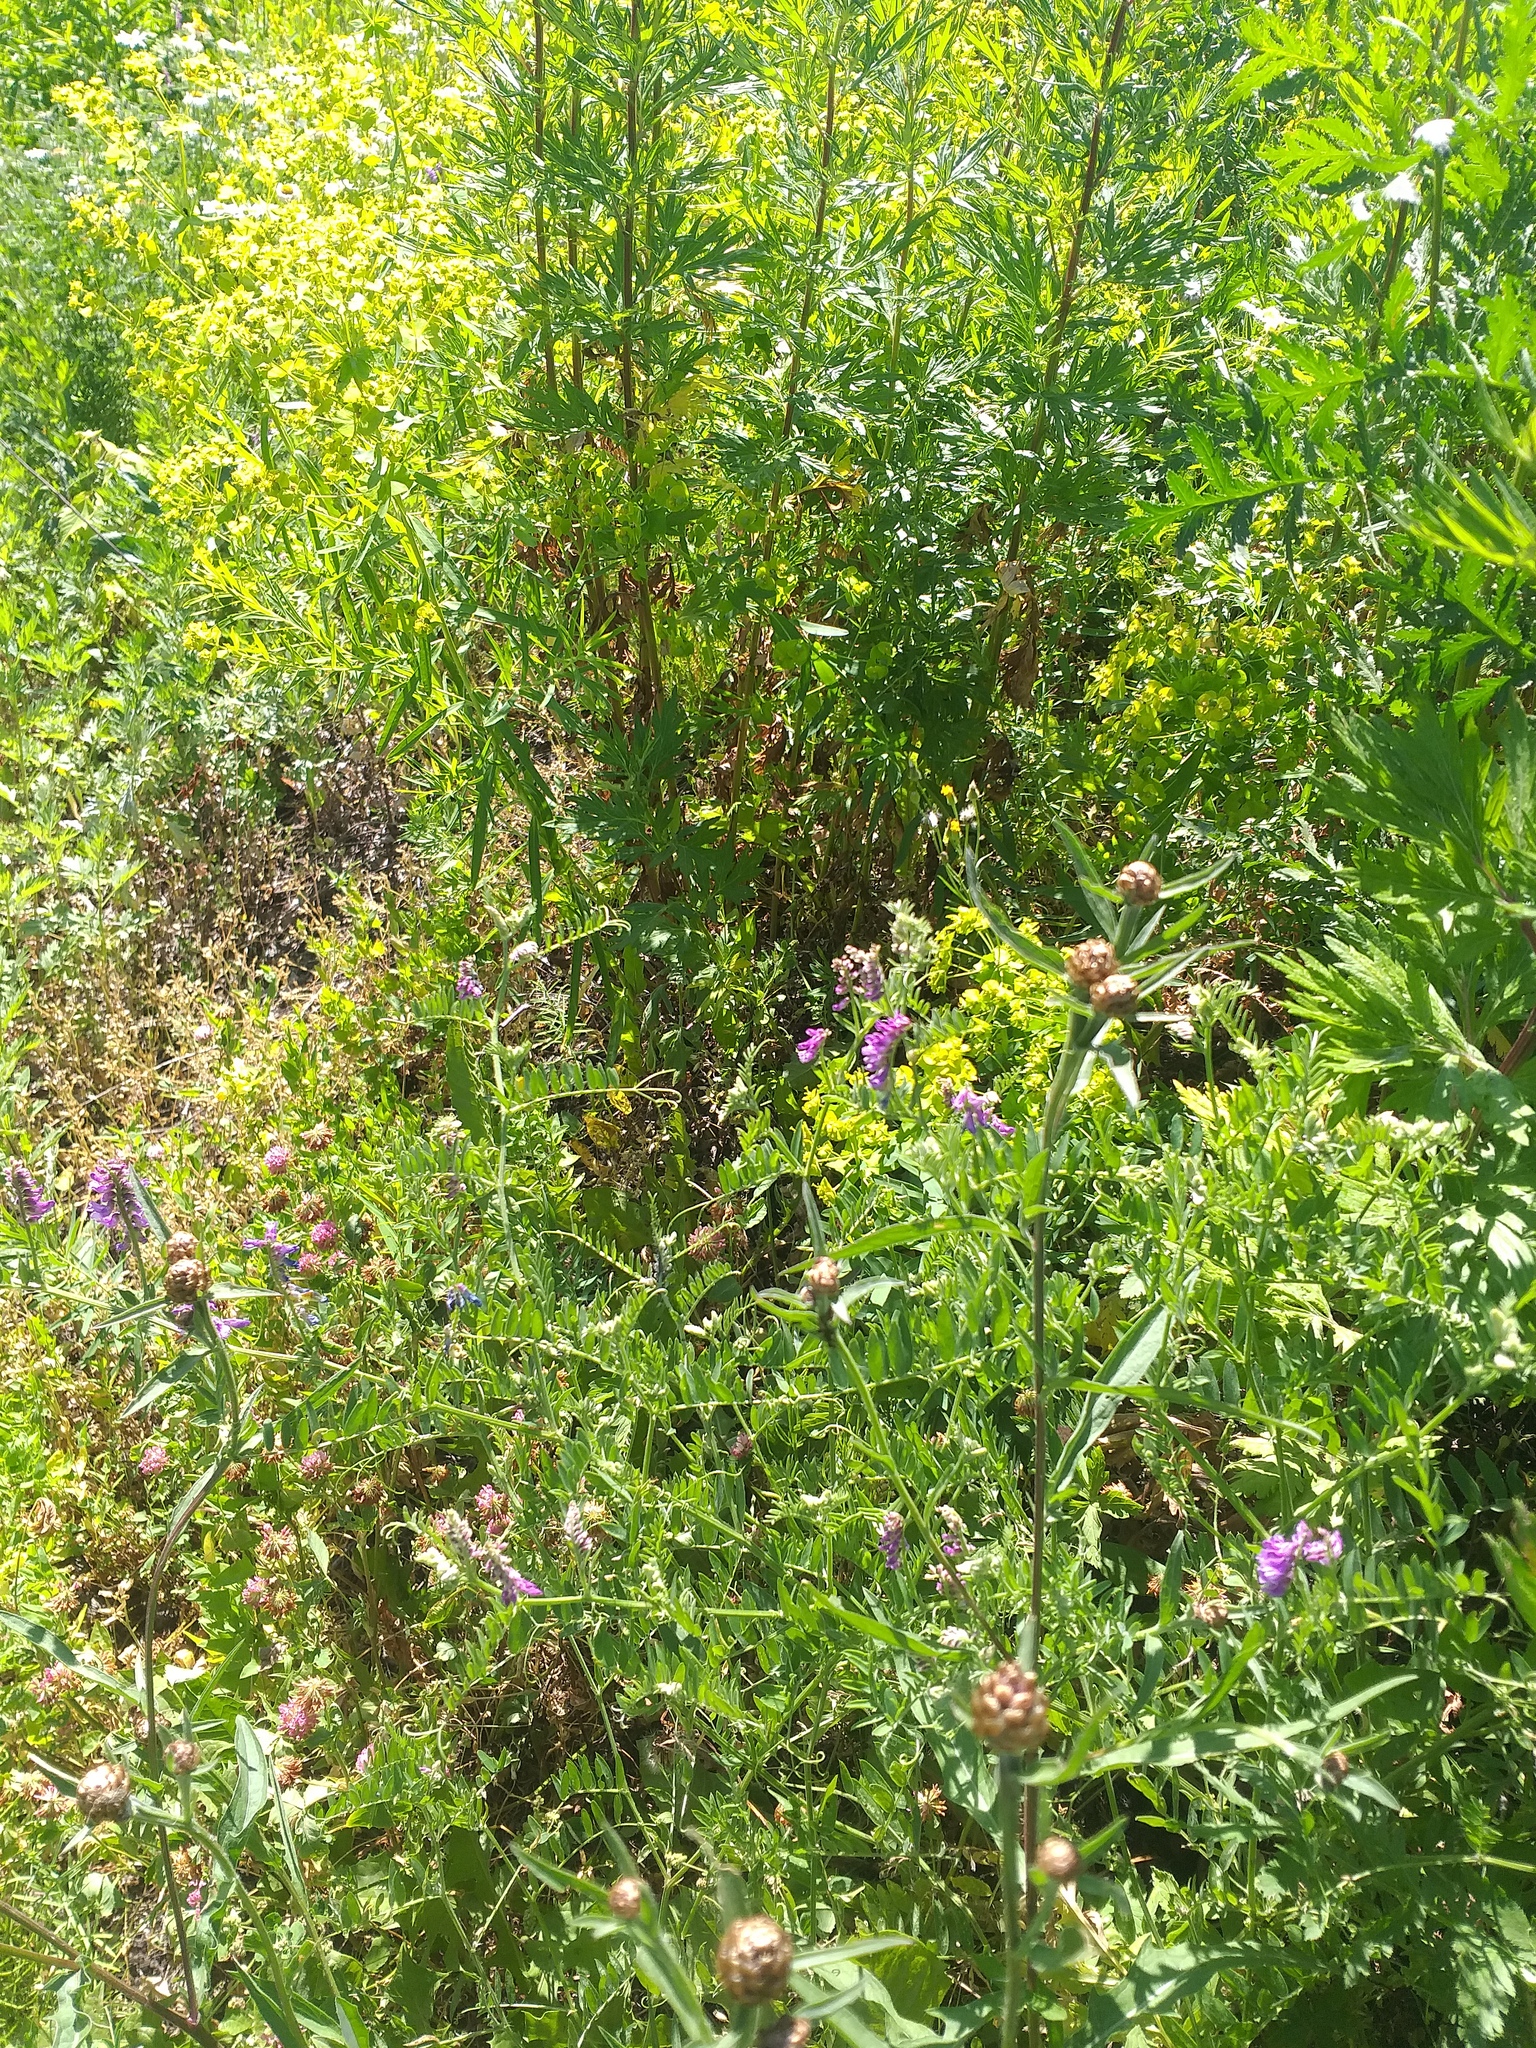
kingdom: Plantae
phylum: Tracheophyta
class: Magnoliopsida
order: Fabales
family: Fabaceae
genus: Vicia
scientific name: Vicia cracca
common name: Bird vetch
